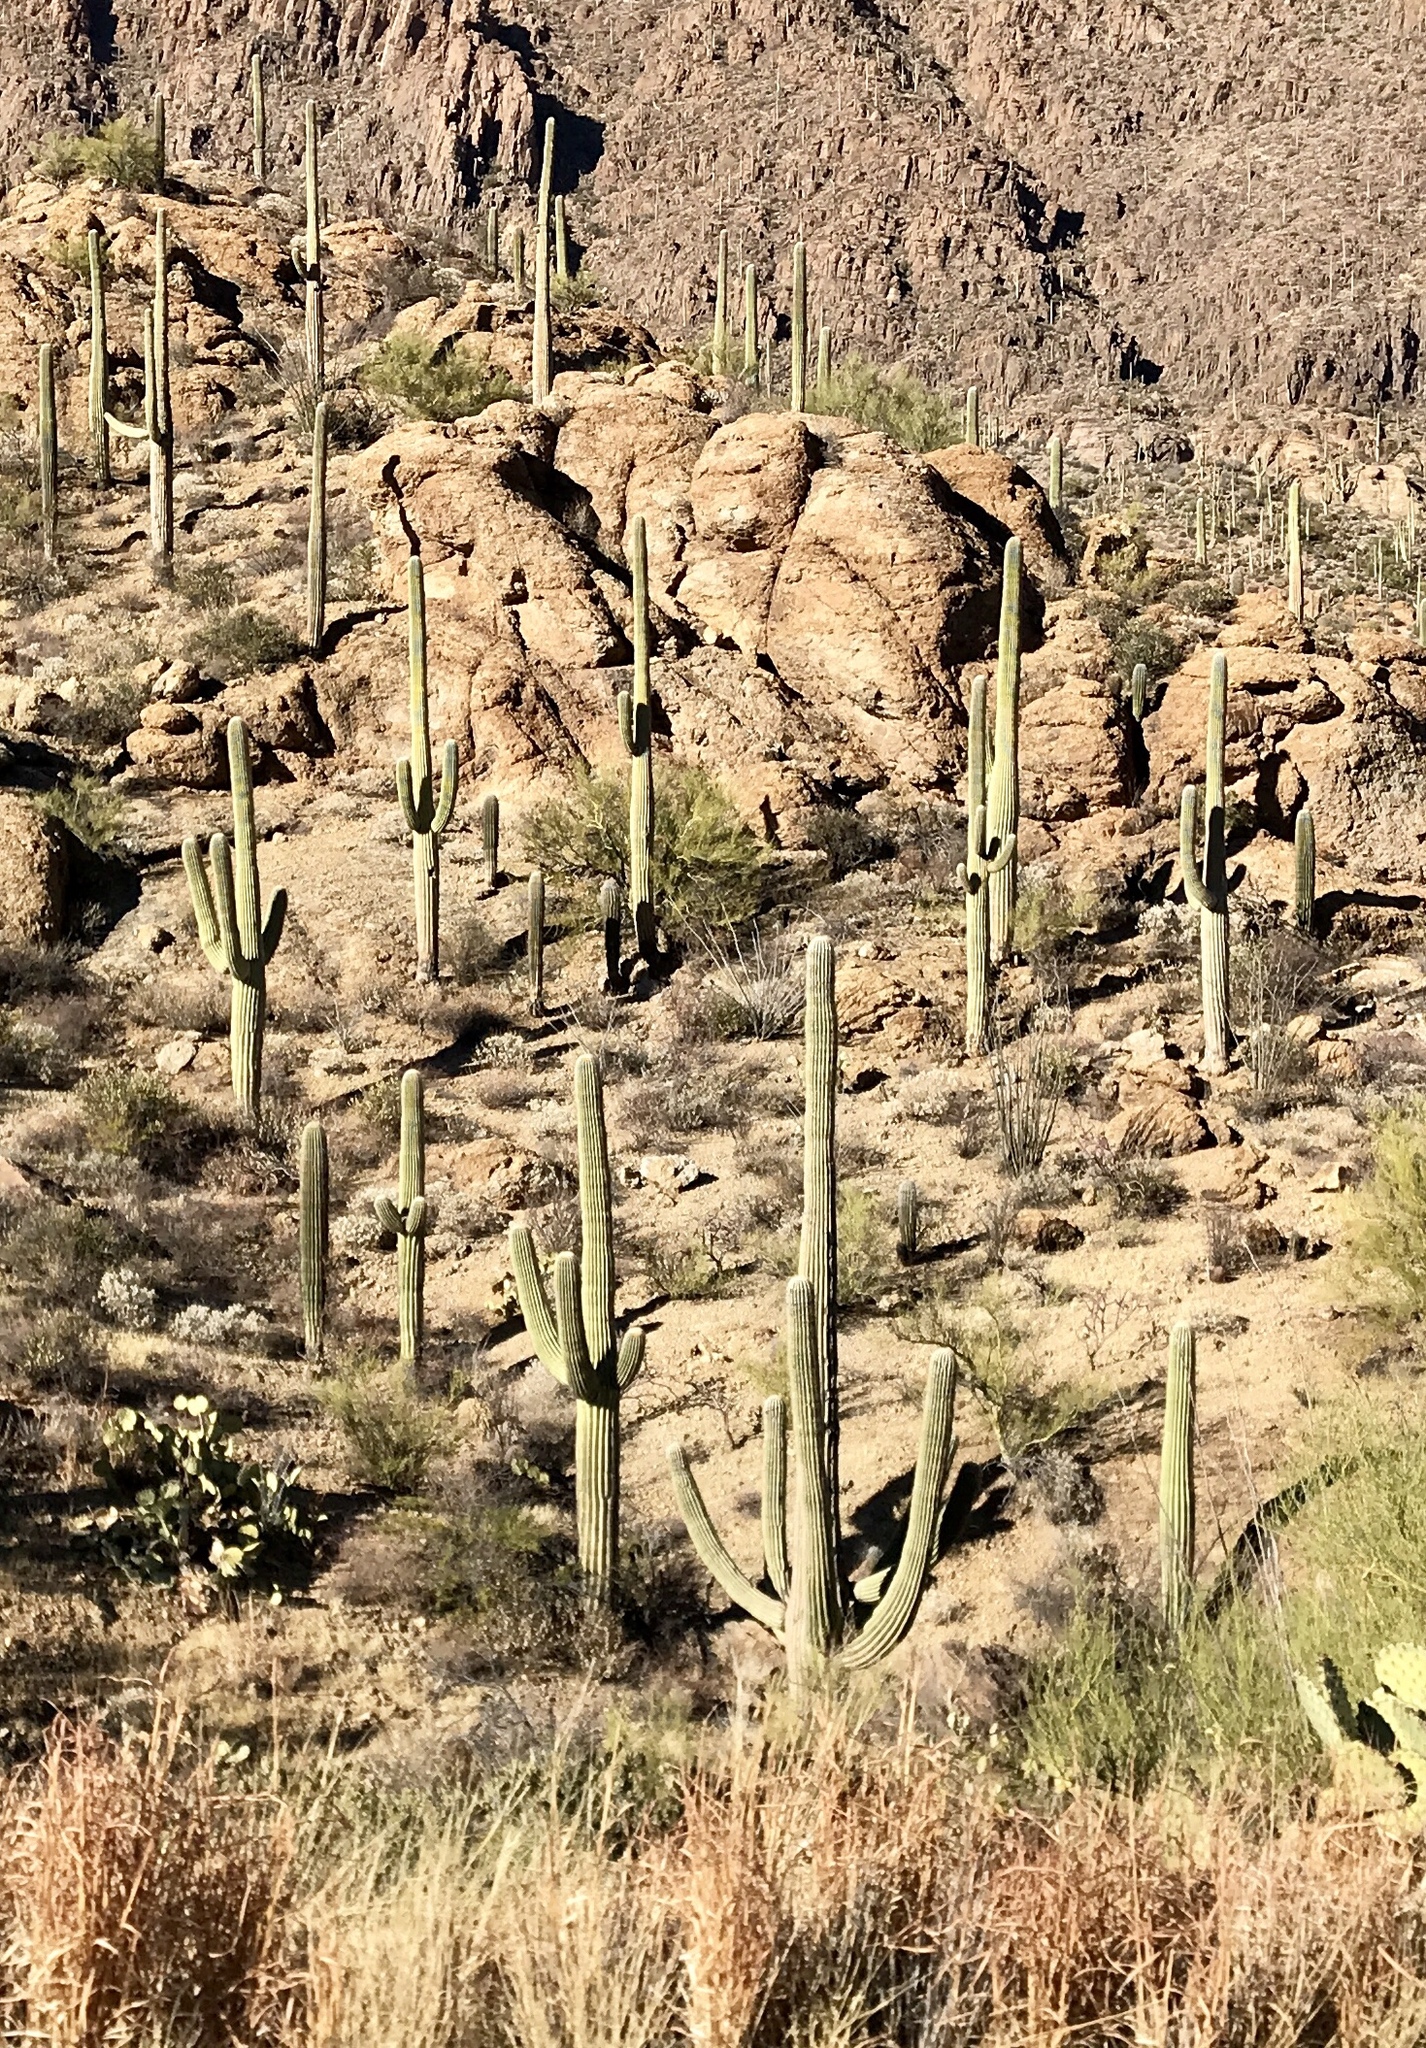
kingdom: Plantae
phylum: Tracheophyta
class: Magnoliopsida
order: Caryophyllales
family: Cactaceae
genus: Carnegiea
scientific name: Carnegiea gigantea
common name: Saguaro
